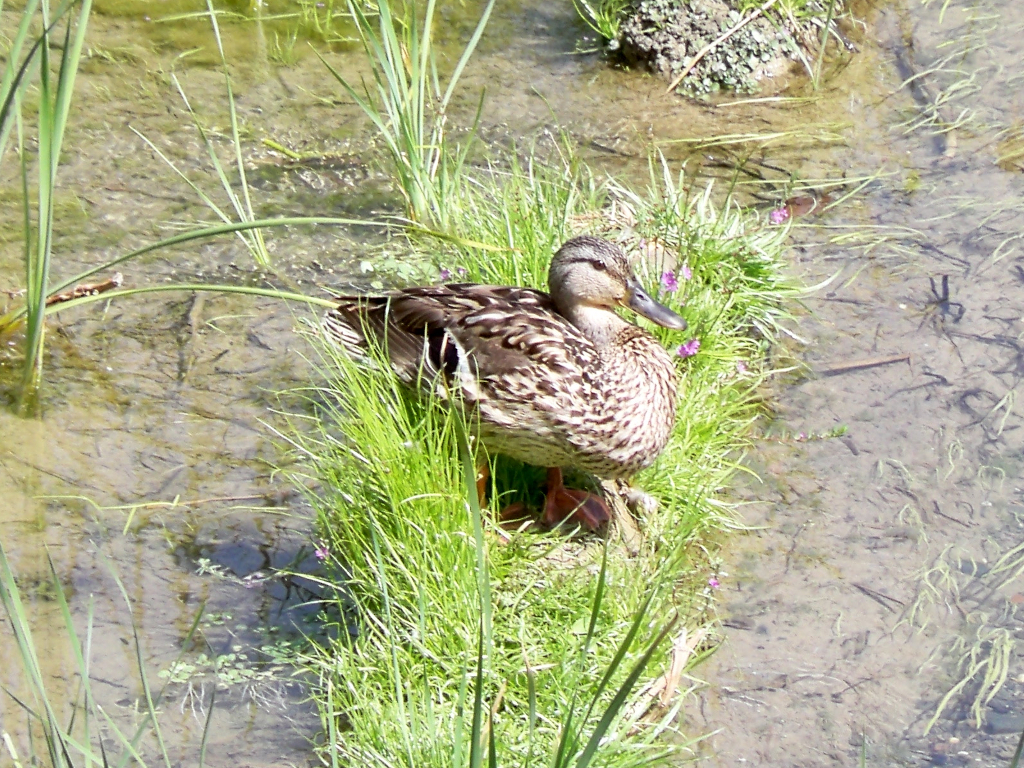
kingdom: Animalia
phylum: Chordata
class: Aves
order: Anseriformes
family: Anatidae
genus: Anas
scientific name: Anas platyrhynchos
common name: Mallard
